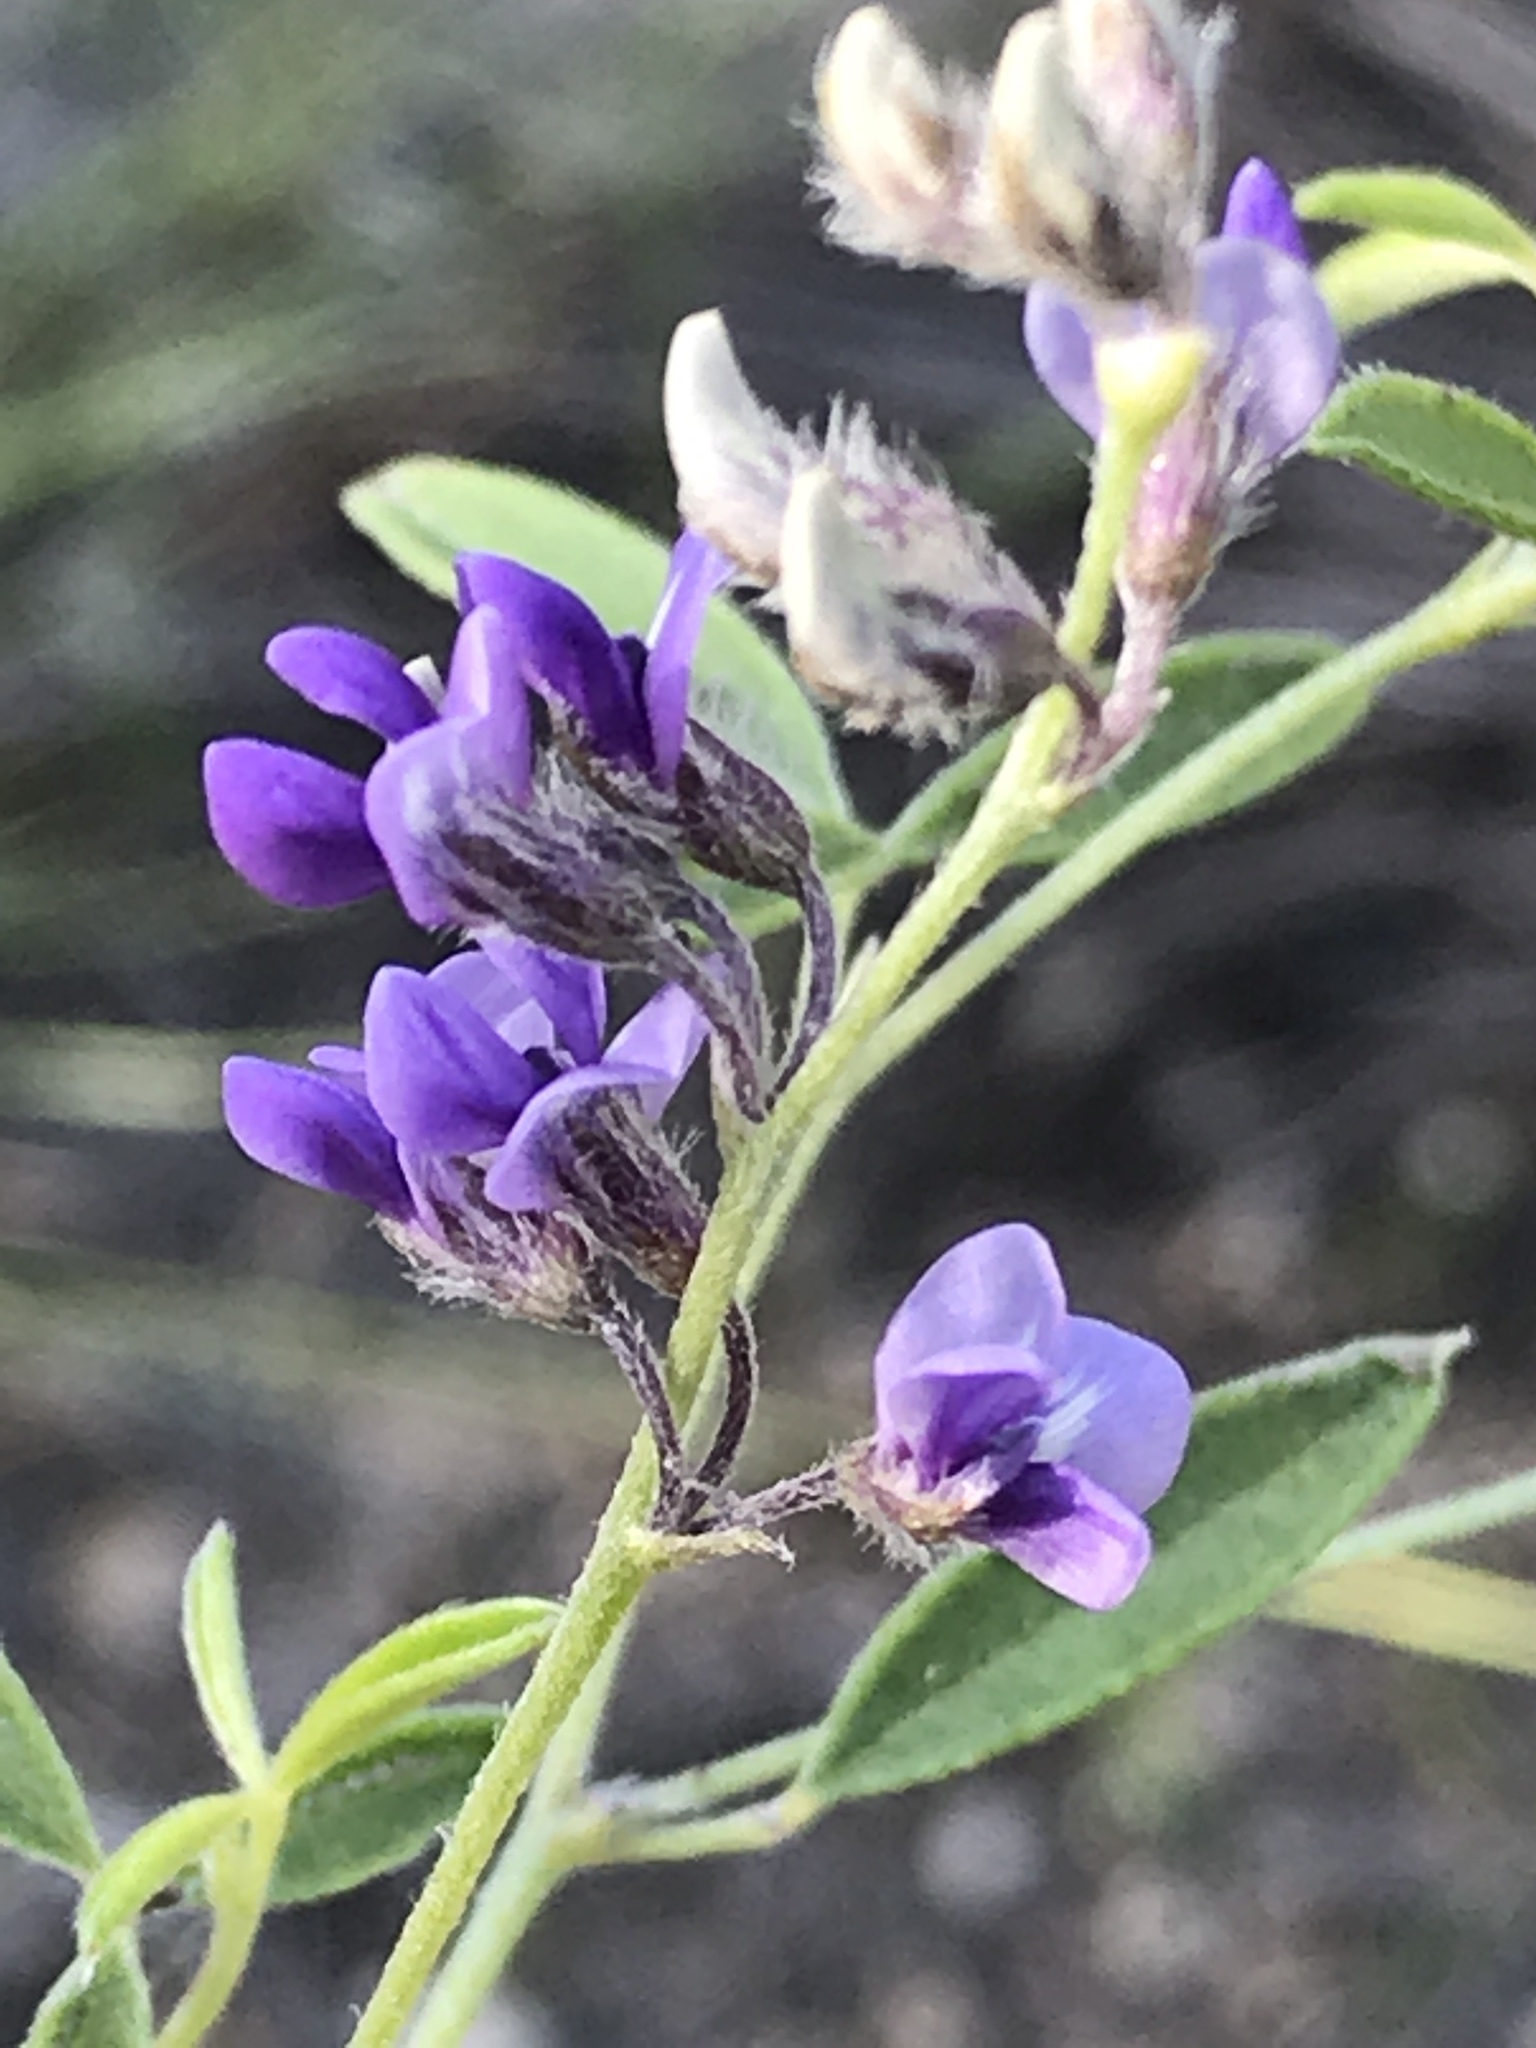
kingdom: Plantae
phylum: Tracheophyta
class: Magnoliopsida
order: Fabales
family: Fabaceae
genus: Pediomelum
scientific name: Pediomelum tenuiflorum
